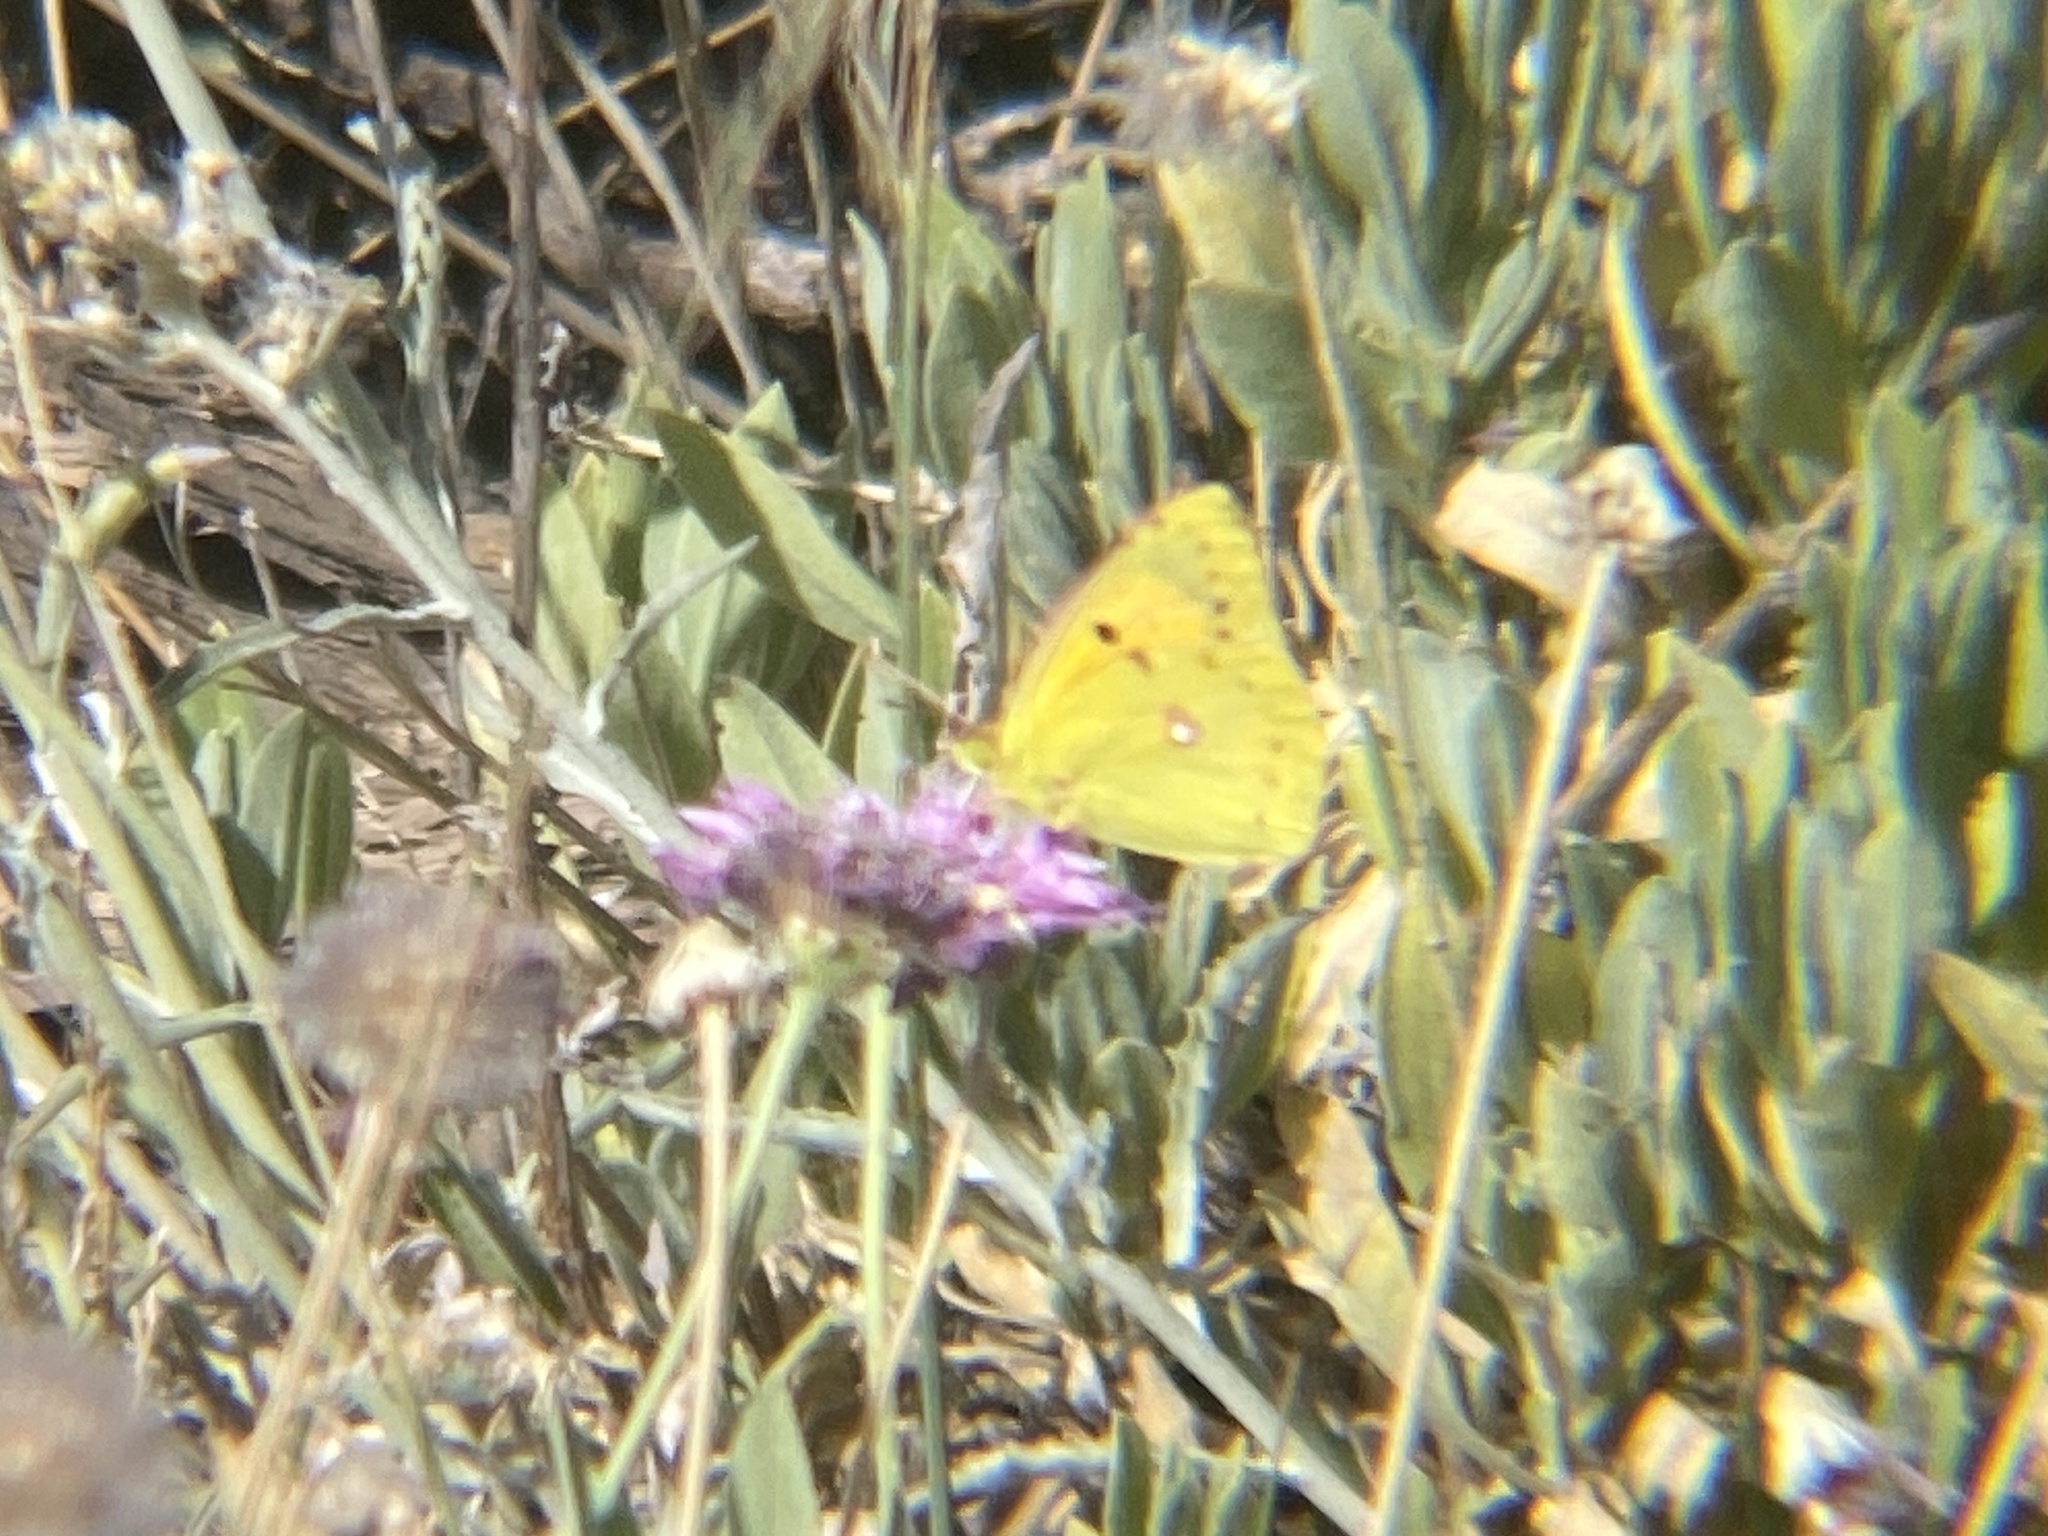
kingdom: Animalia
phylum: Arthropoda
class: Insecta
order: Lepidoptera
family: Pieridae
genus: Colias
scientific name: Colias croceus
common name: Clouded yellow
